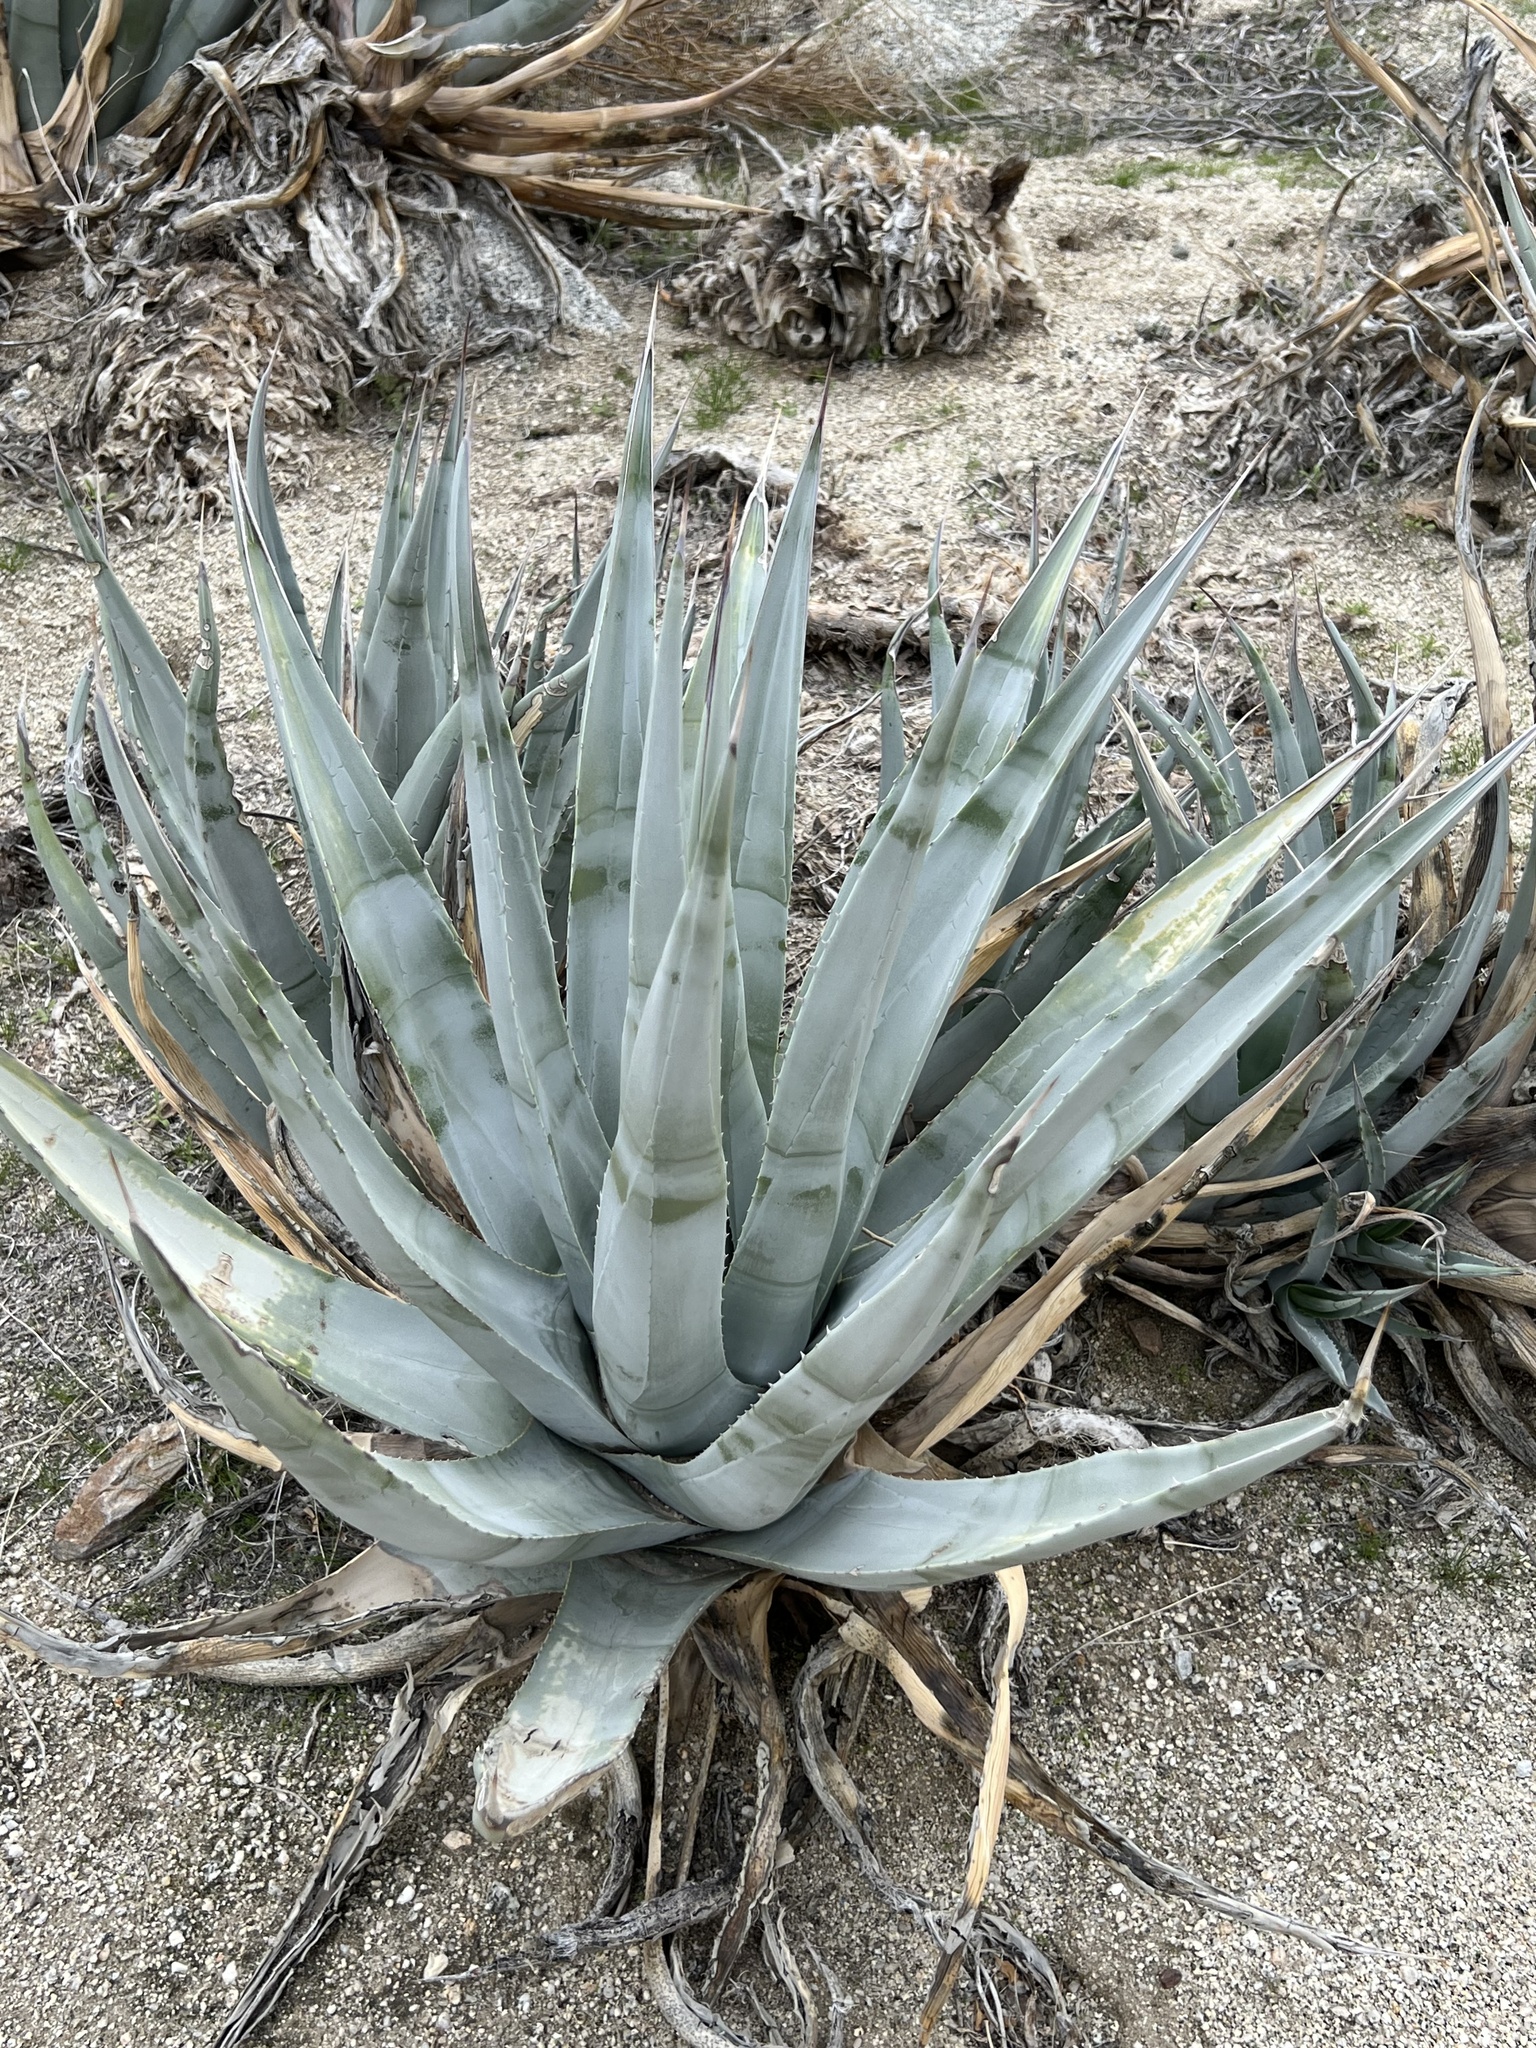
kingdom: Plantae
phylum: Tracheophyta
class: Liliopsida
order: Asparagales
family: Asparagaceae
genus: Agave
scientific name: Agave deserti
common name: Desert agave
